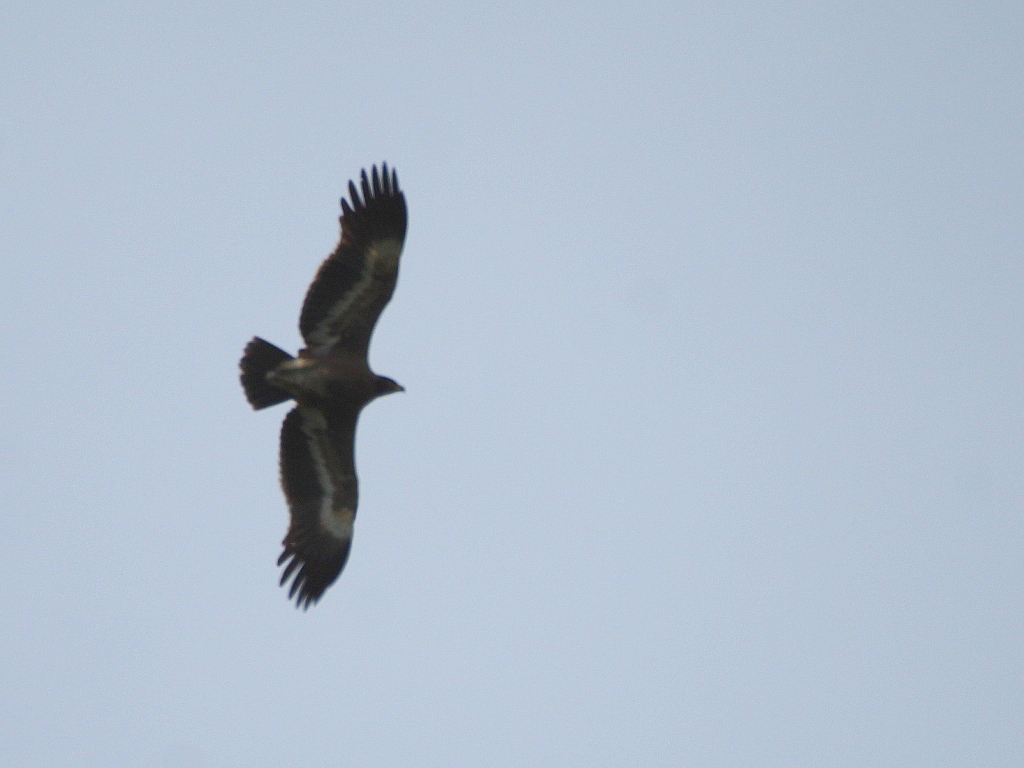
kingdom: Animalia
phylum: Chordata
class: Aves
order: Accipitriformes
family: Accipitridae
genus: Aquila
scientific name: Aquila nipalensis
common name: Steppe eagle
